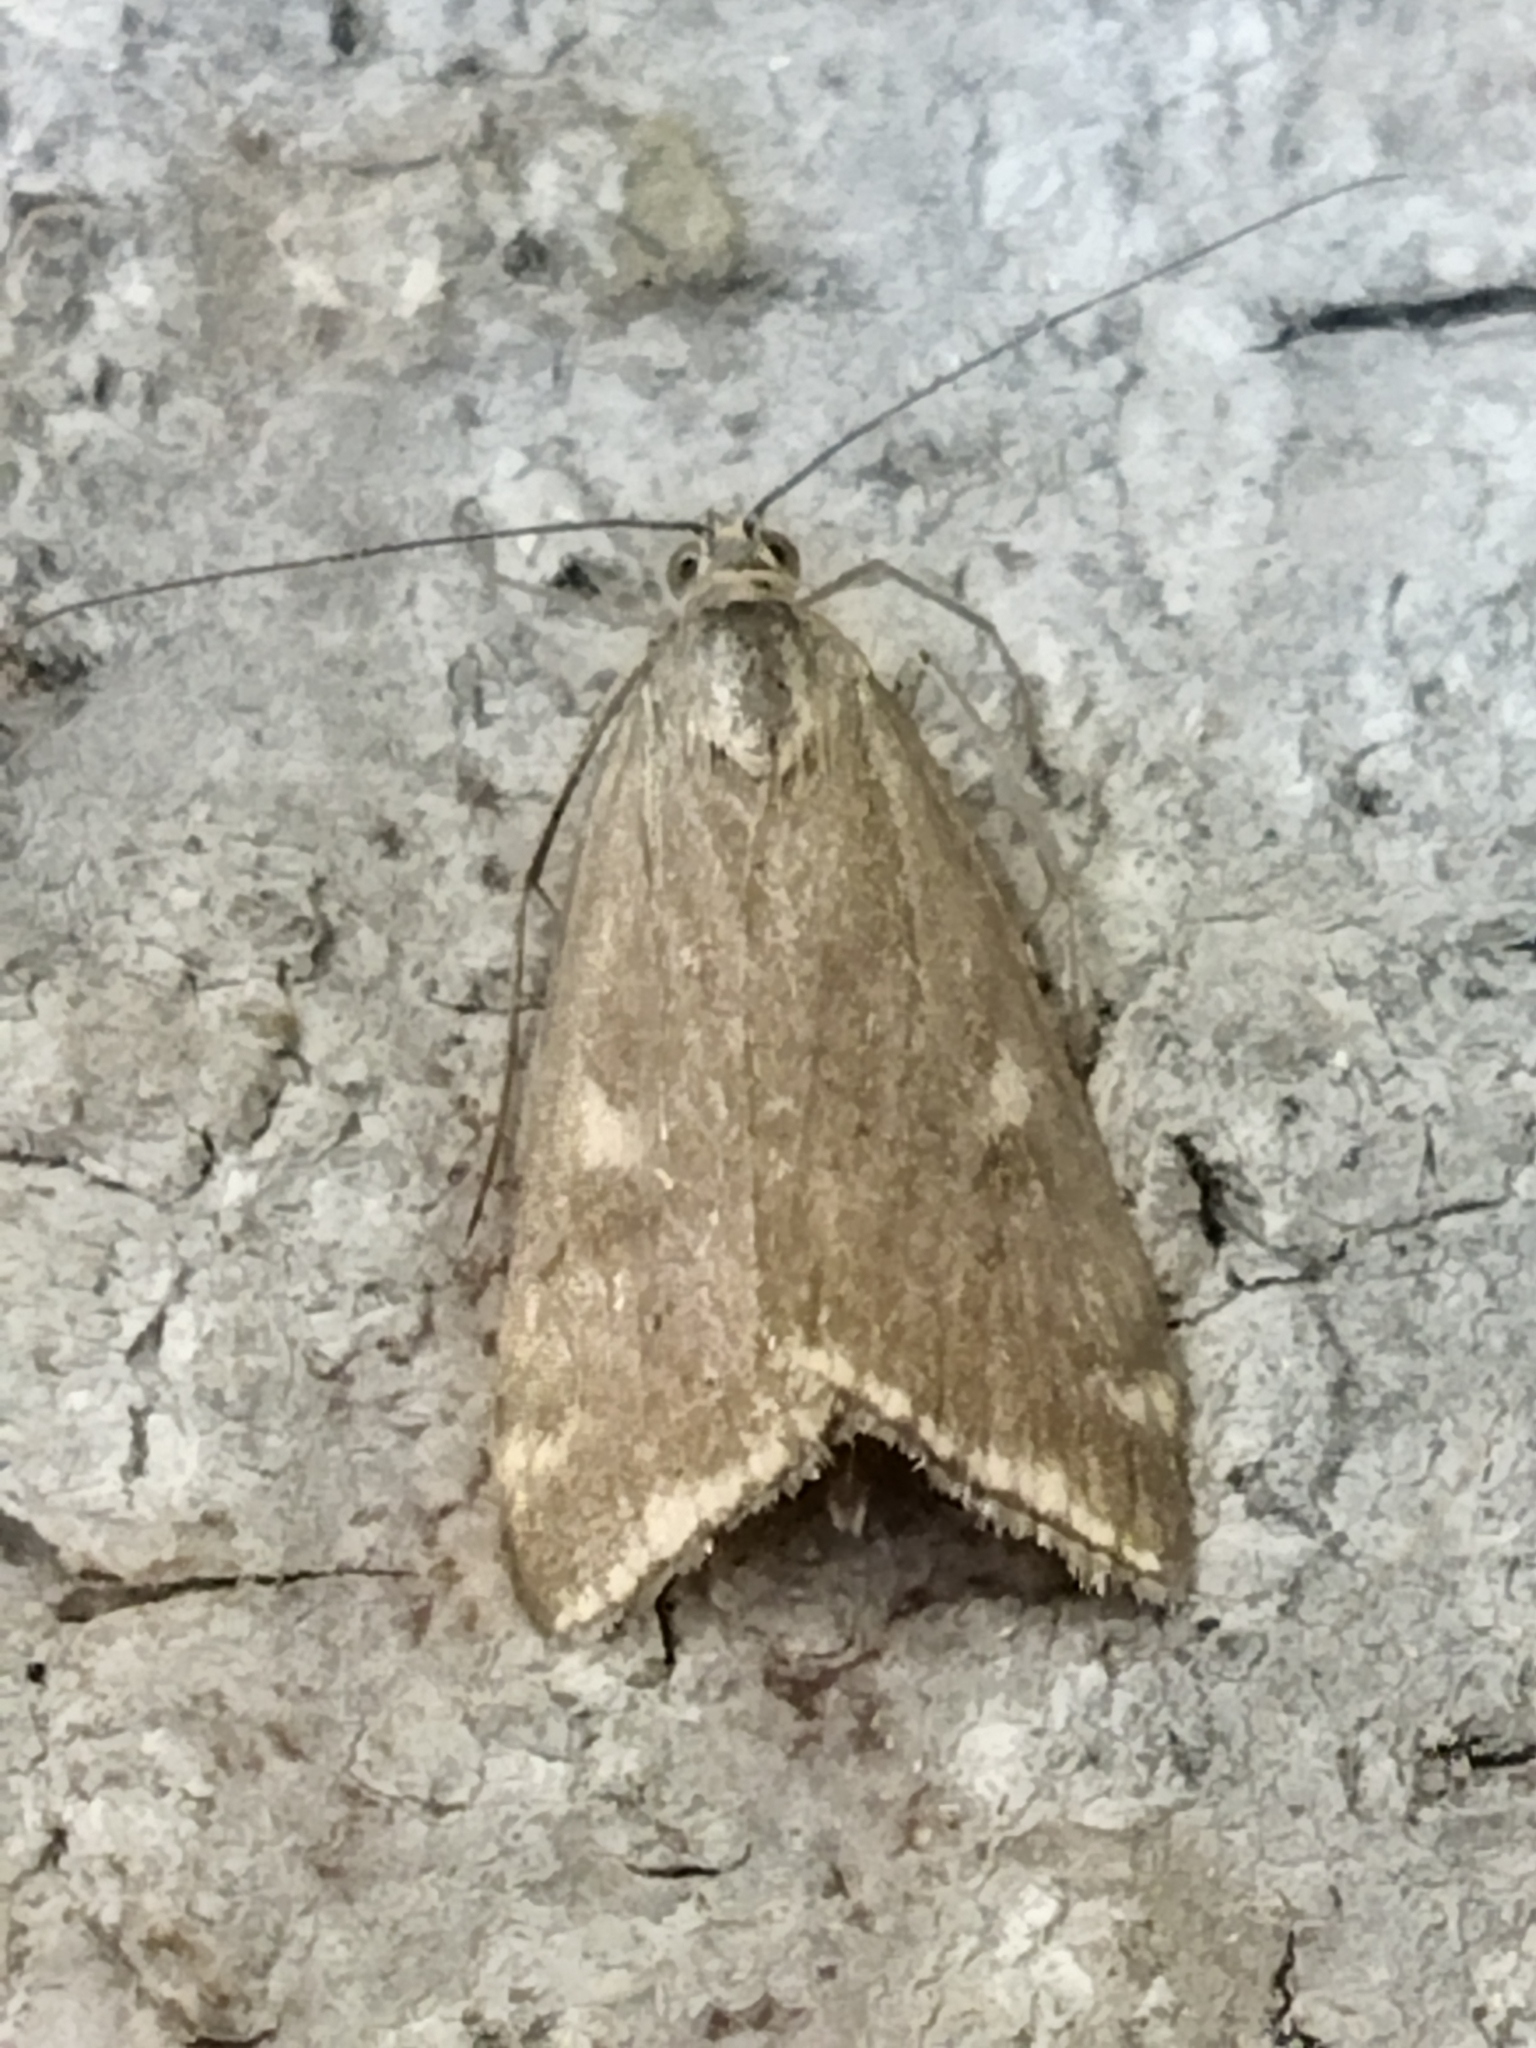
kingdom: Animalia
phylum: Arthropoda
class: Insecta
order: Lepidoptera
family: Crambidae
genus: Loxostege
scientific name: Loxostege sticticalis
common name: Crambid moth
